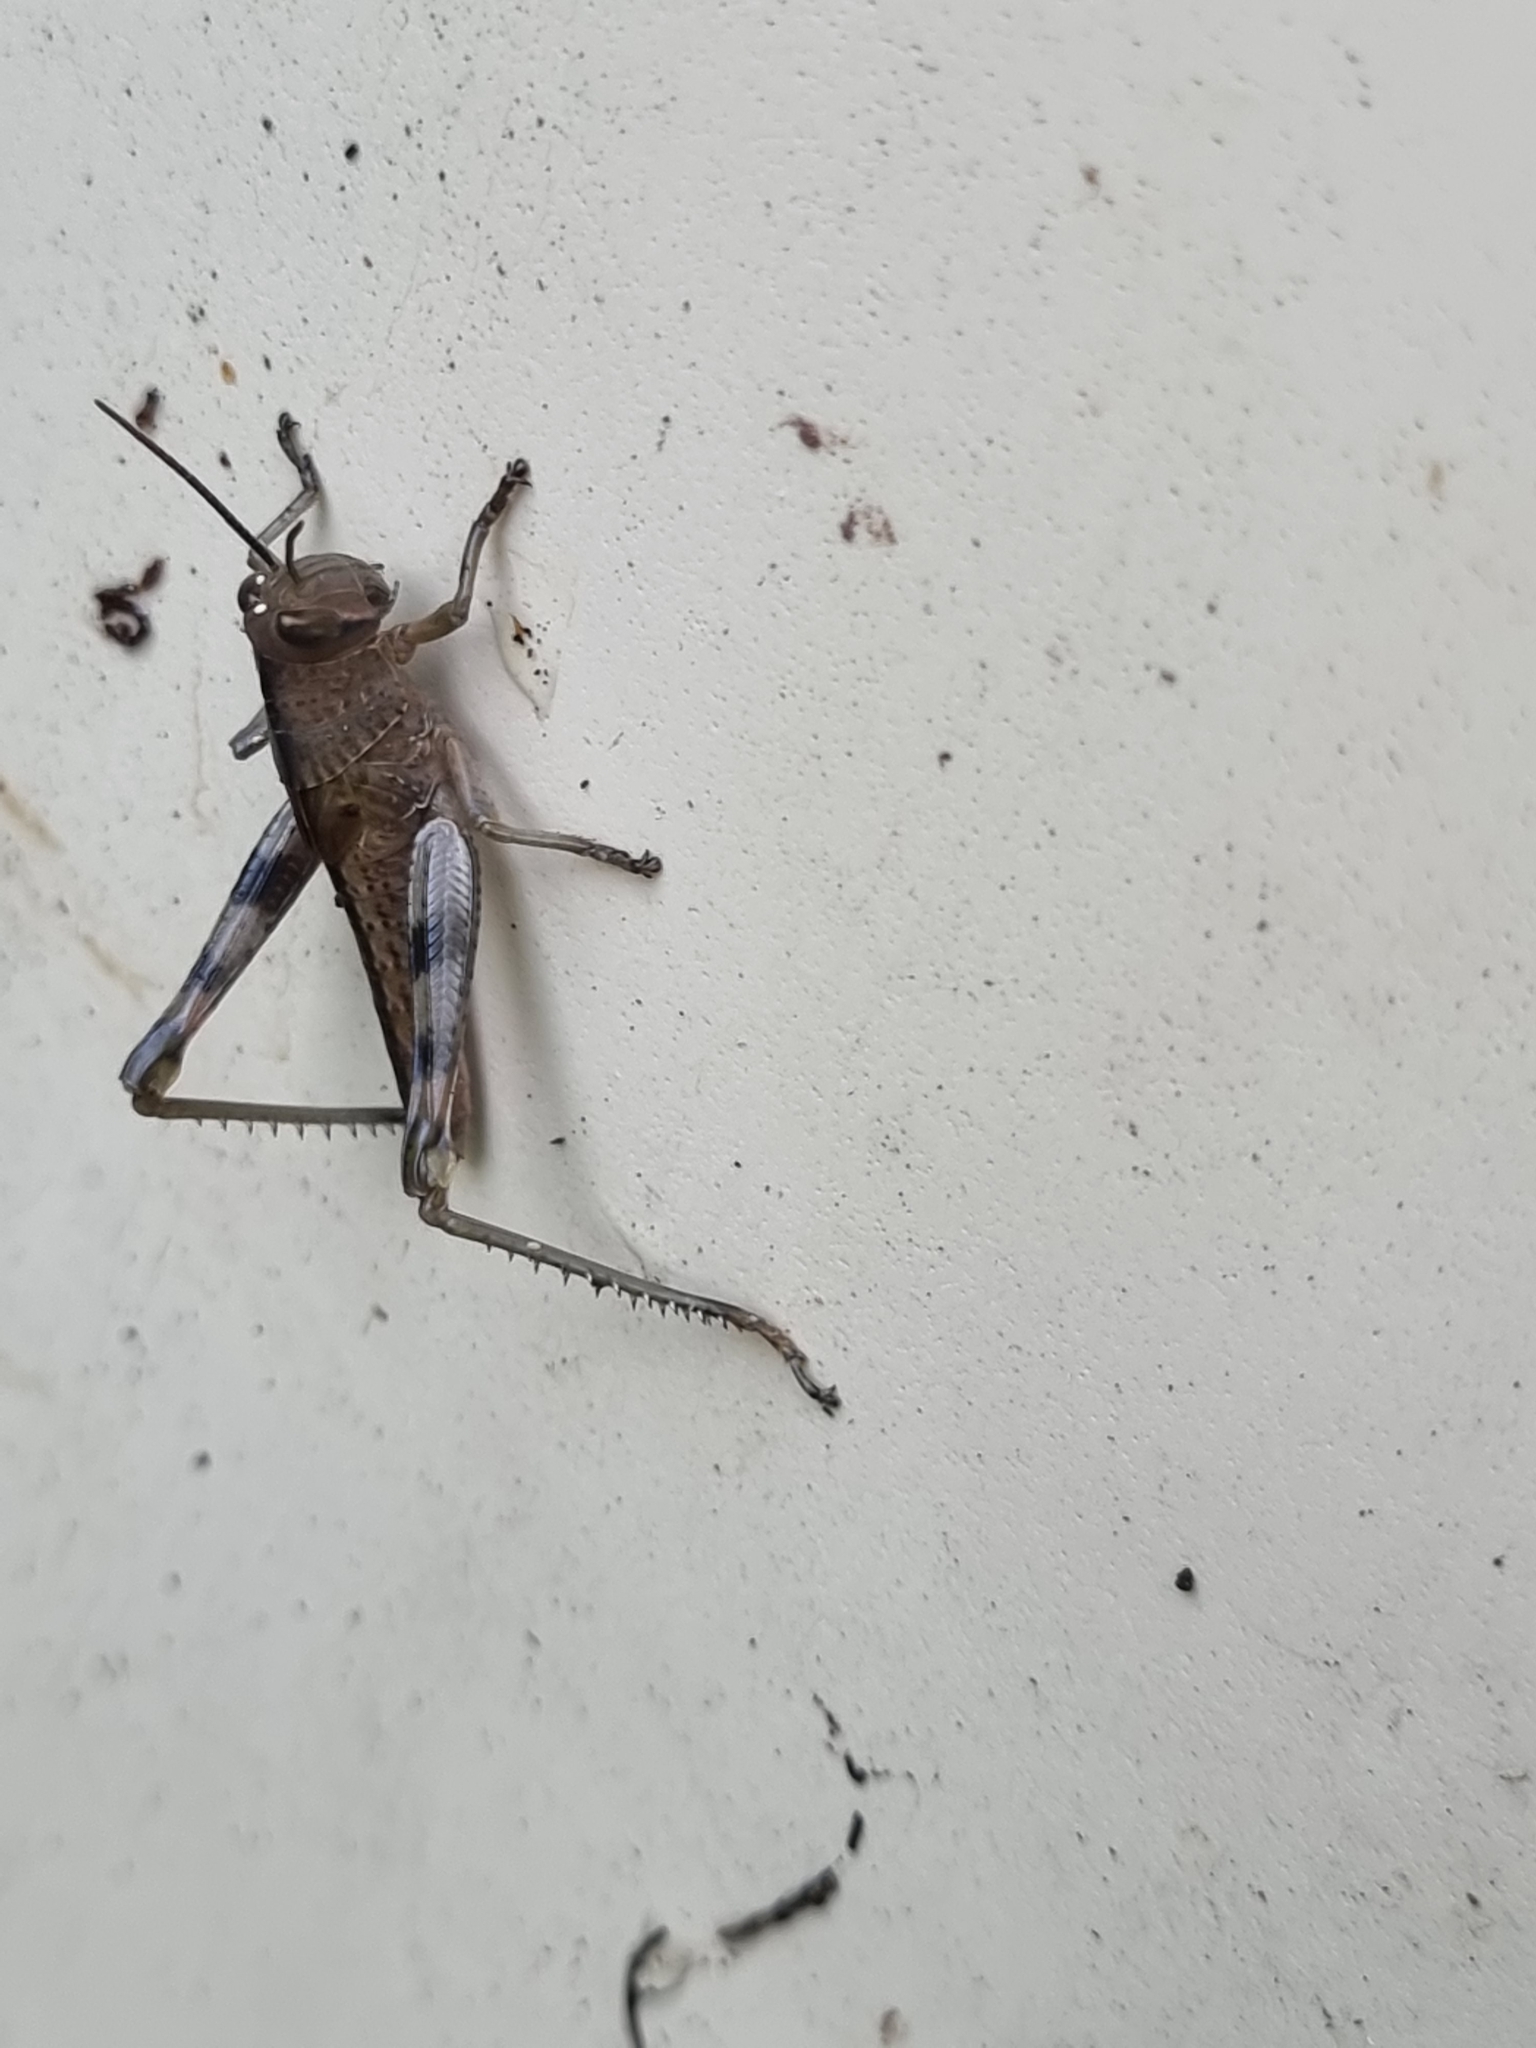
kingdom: Animalia
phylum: Arthropoda
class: Insecta
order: Orthoptera
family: Acrididae
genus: Valanga
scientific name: Valanga irregularis
